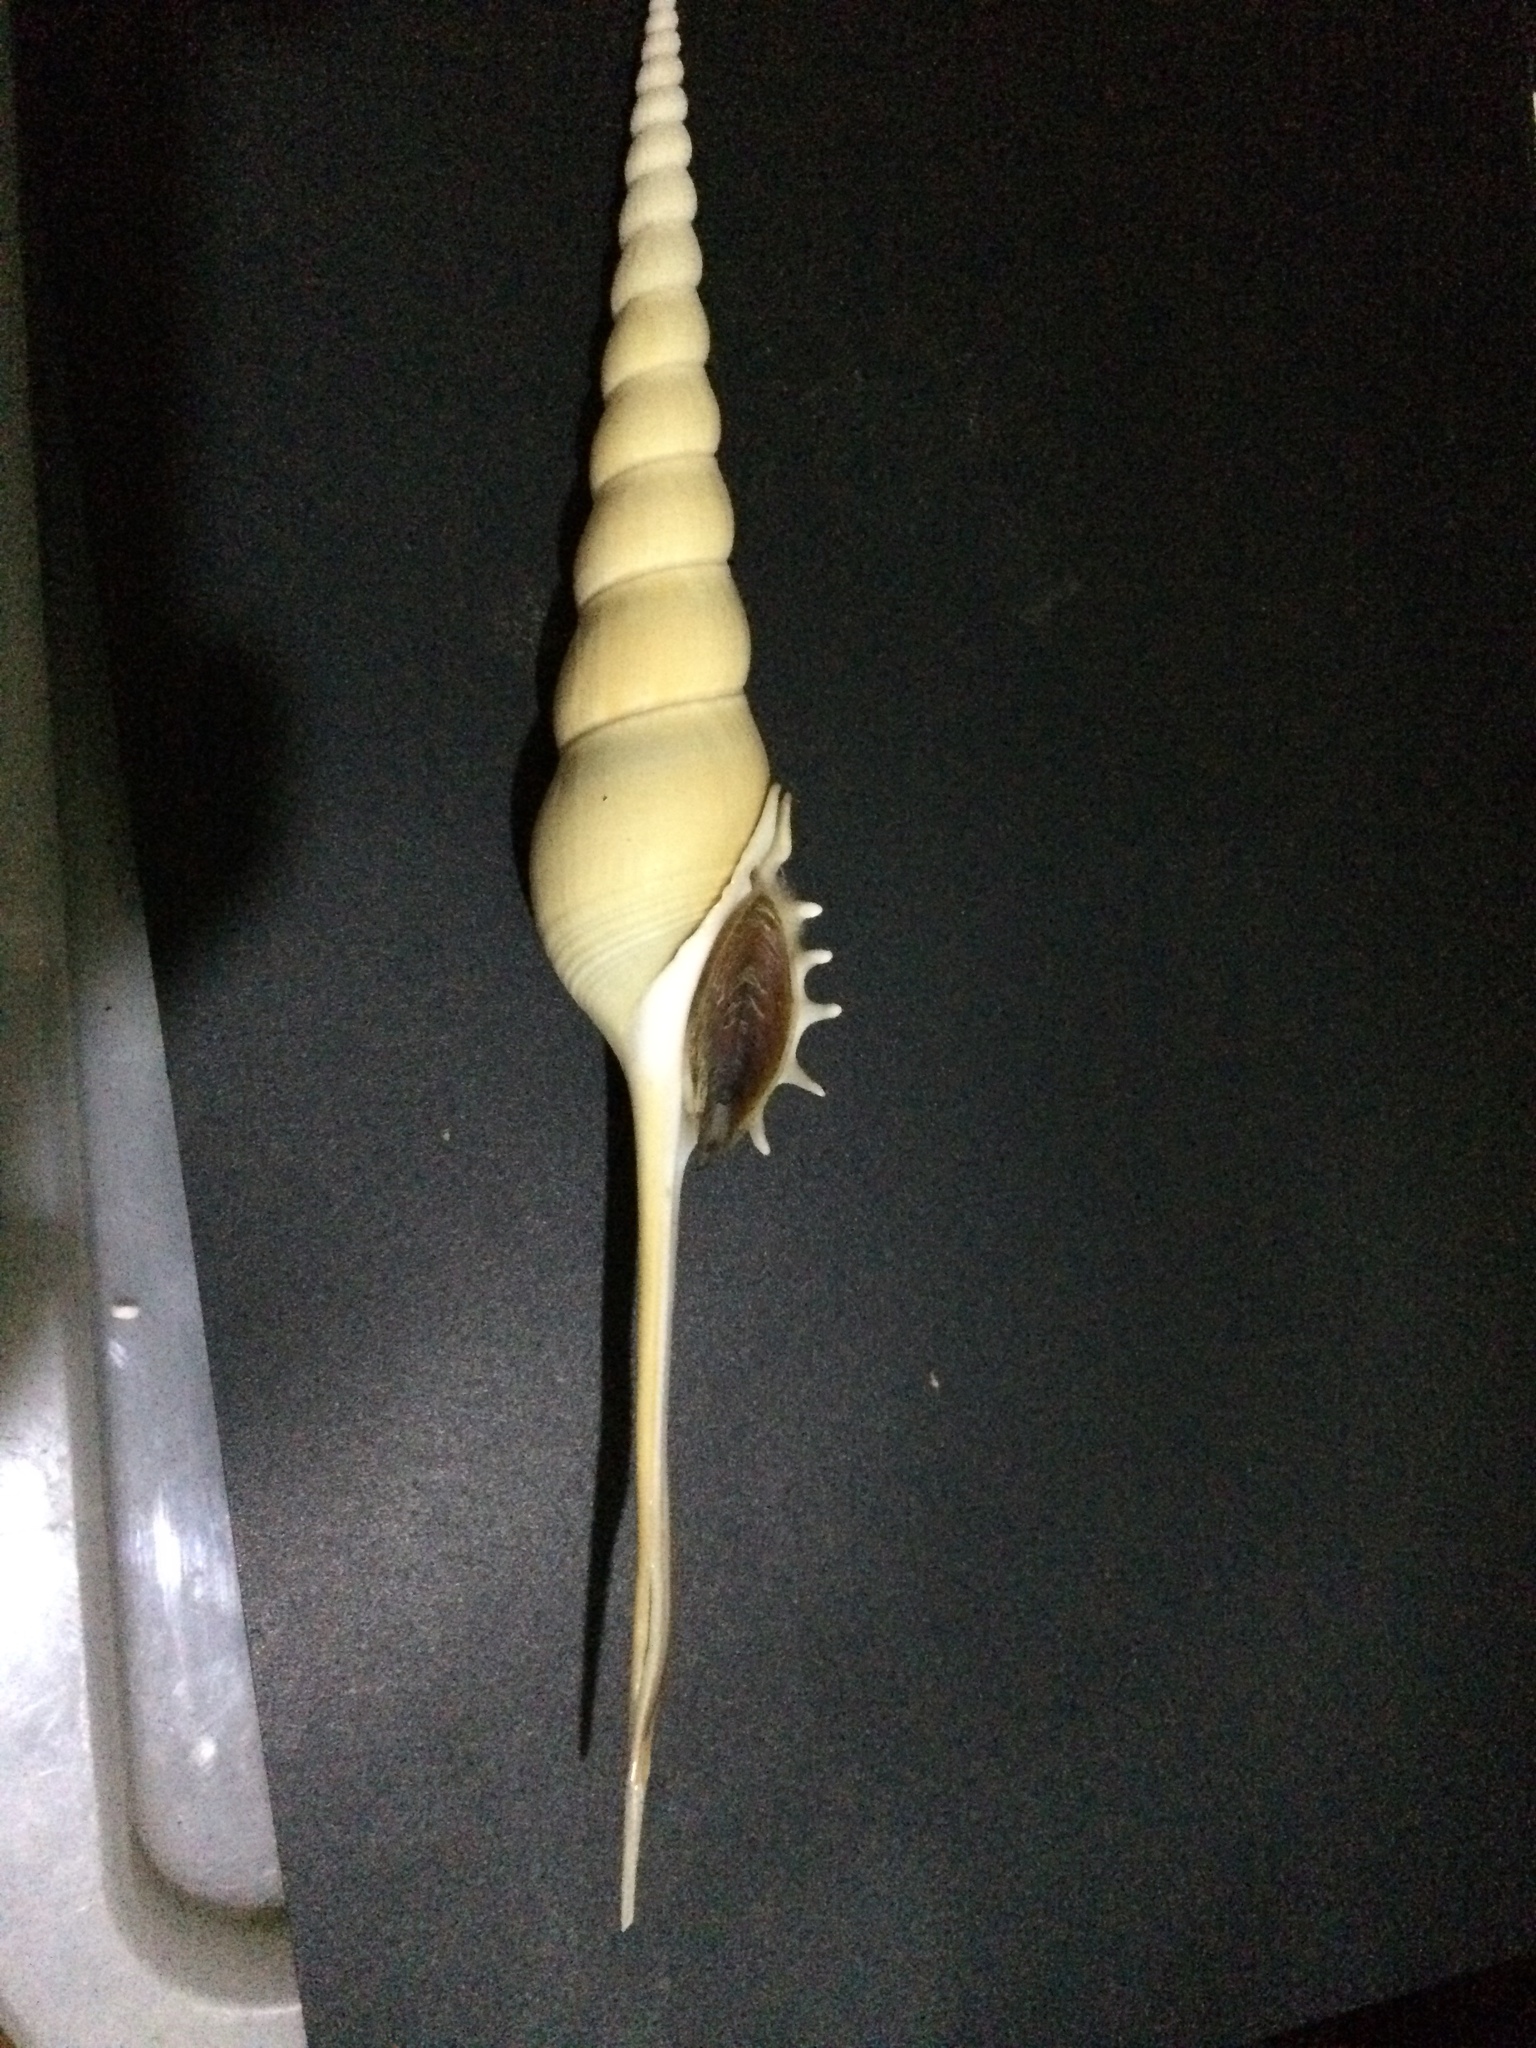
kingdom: Animalia
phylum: Mollusca
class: Gastropoda
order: Littorinimorpha
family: Rostellariidae
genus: Tibia
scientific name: Tibia fusus
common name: Shinbone tibia
